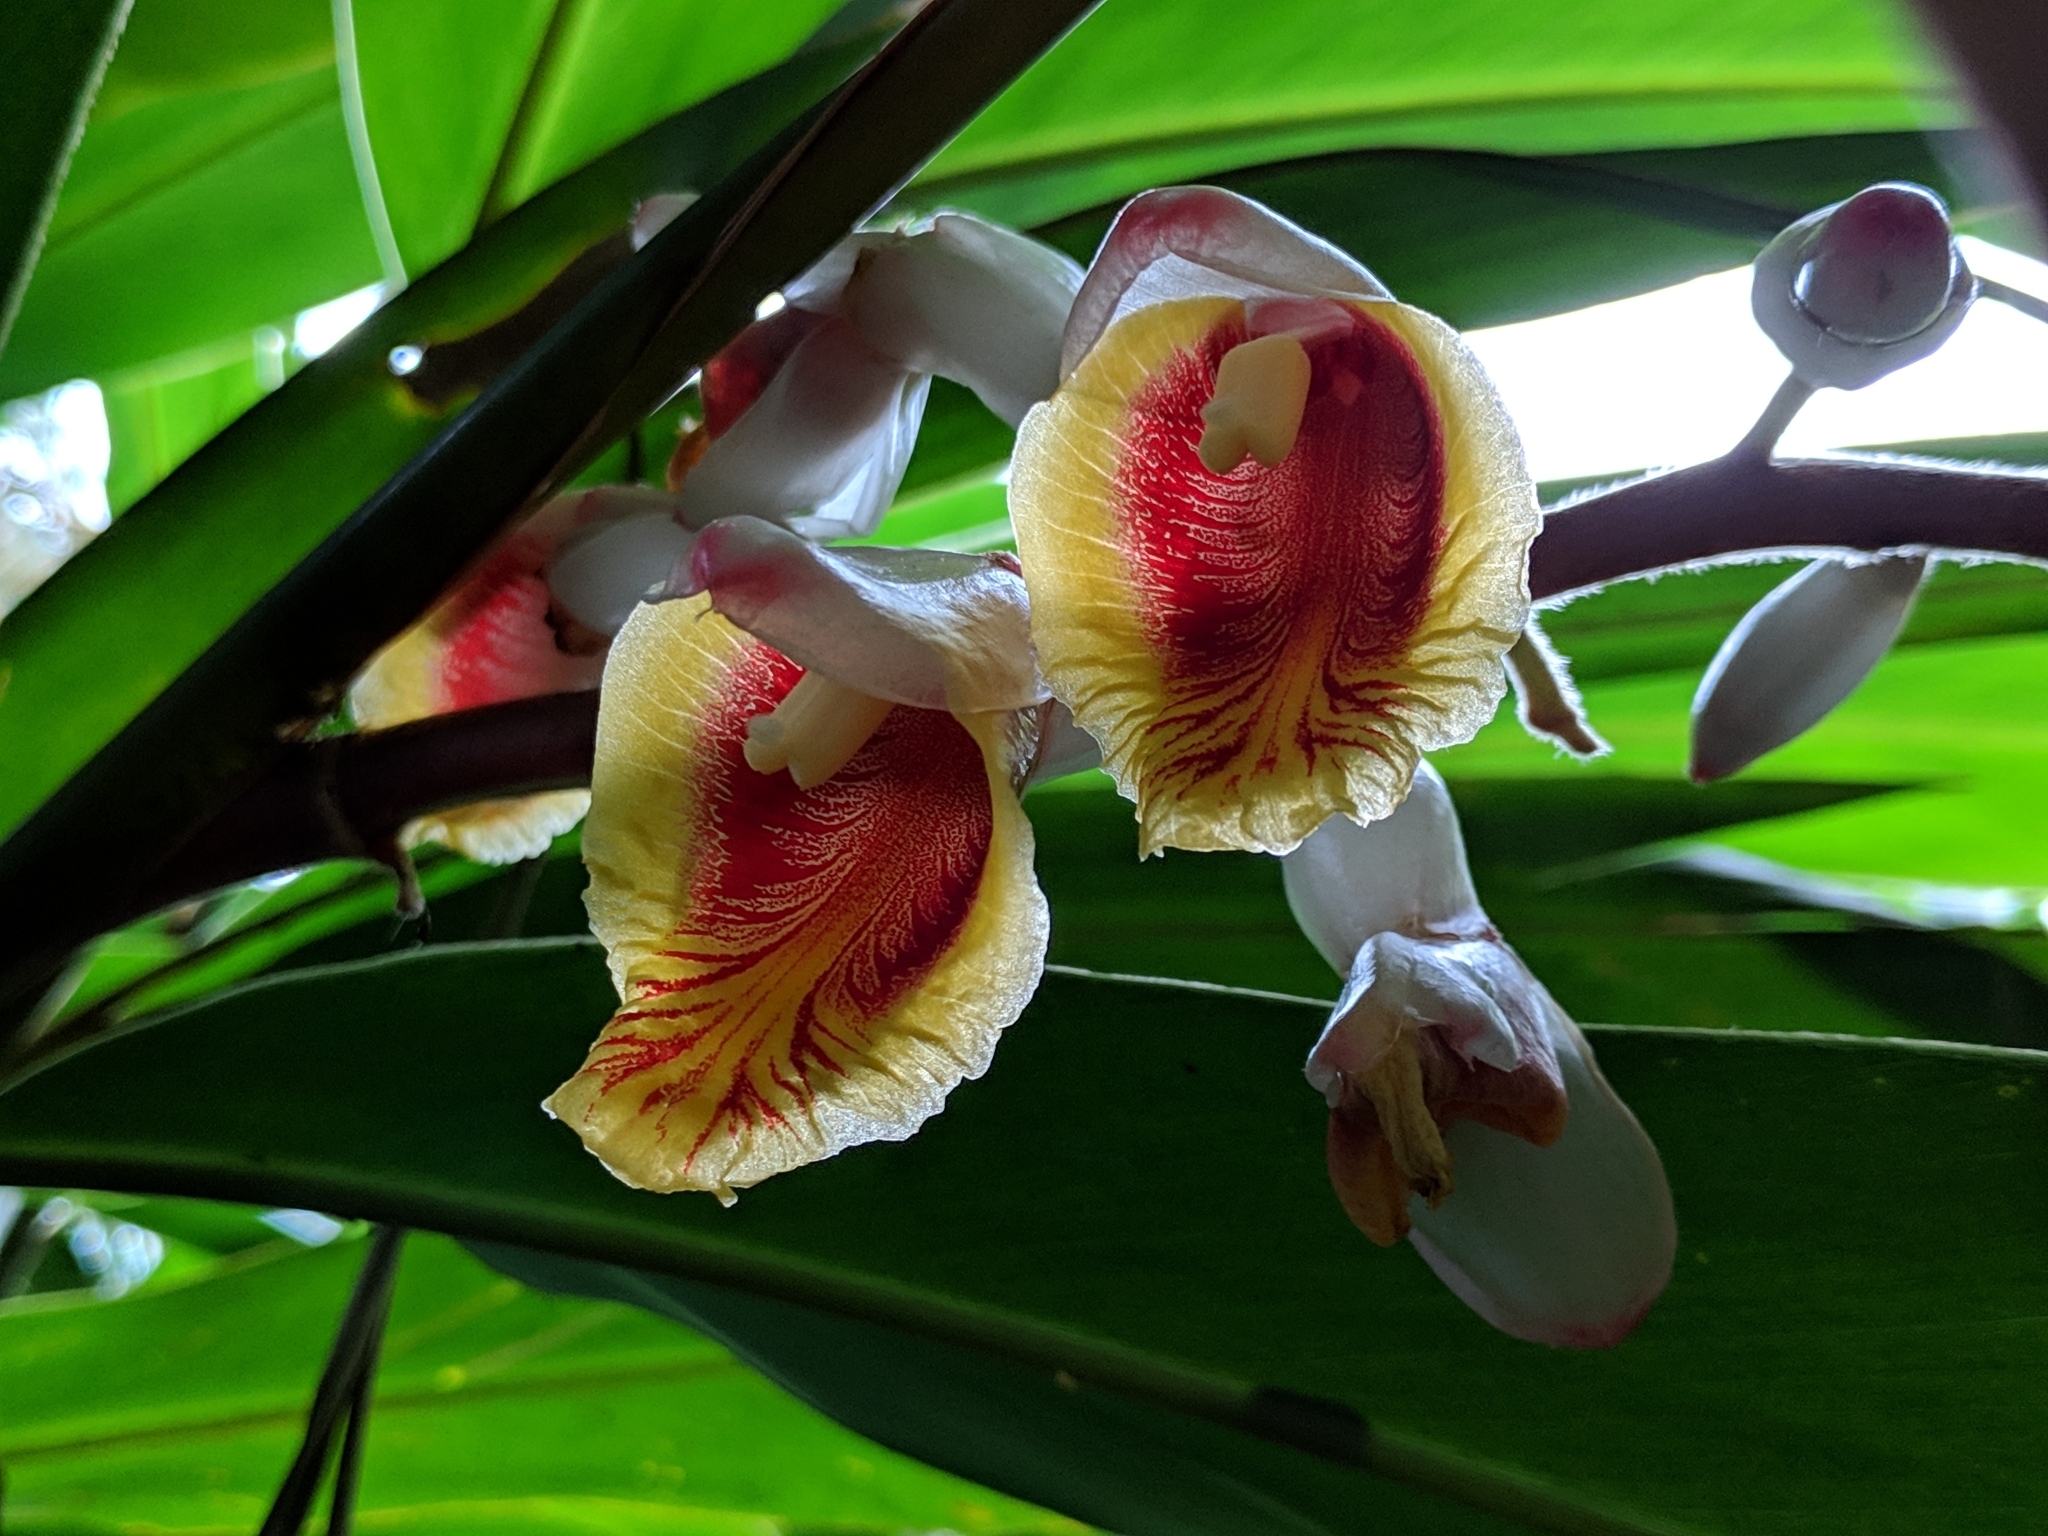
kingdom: Plantae
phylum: Tracheophyta
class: Liliopsida
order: Zingiberales
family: Zingiberaceae
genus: Alpinia
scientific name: Alpinia zerumbet
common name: Shellplant
